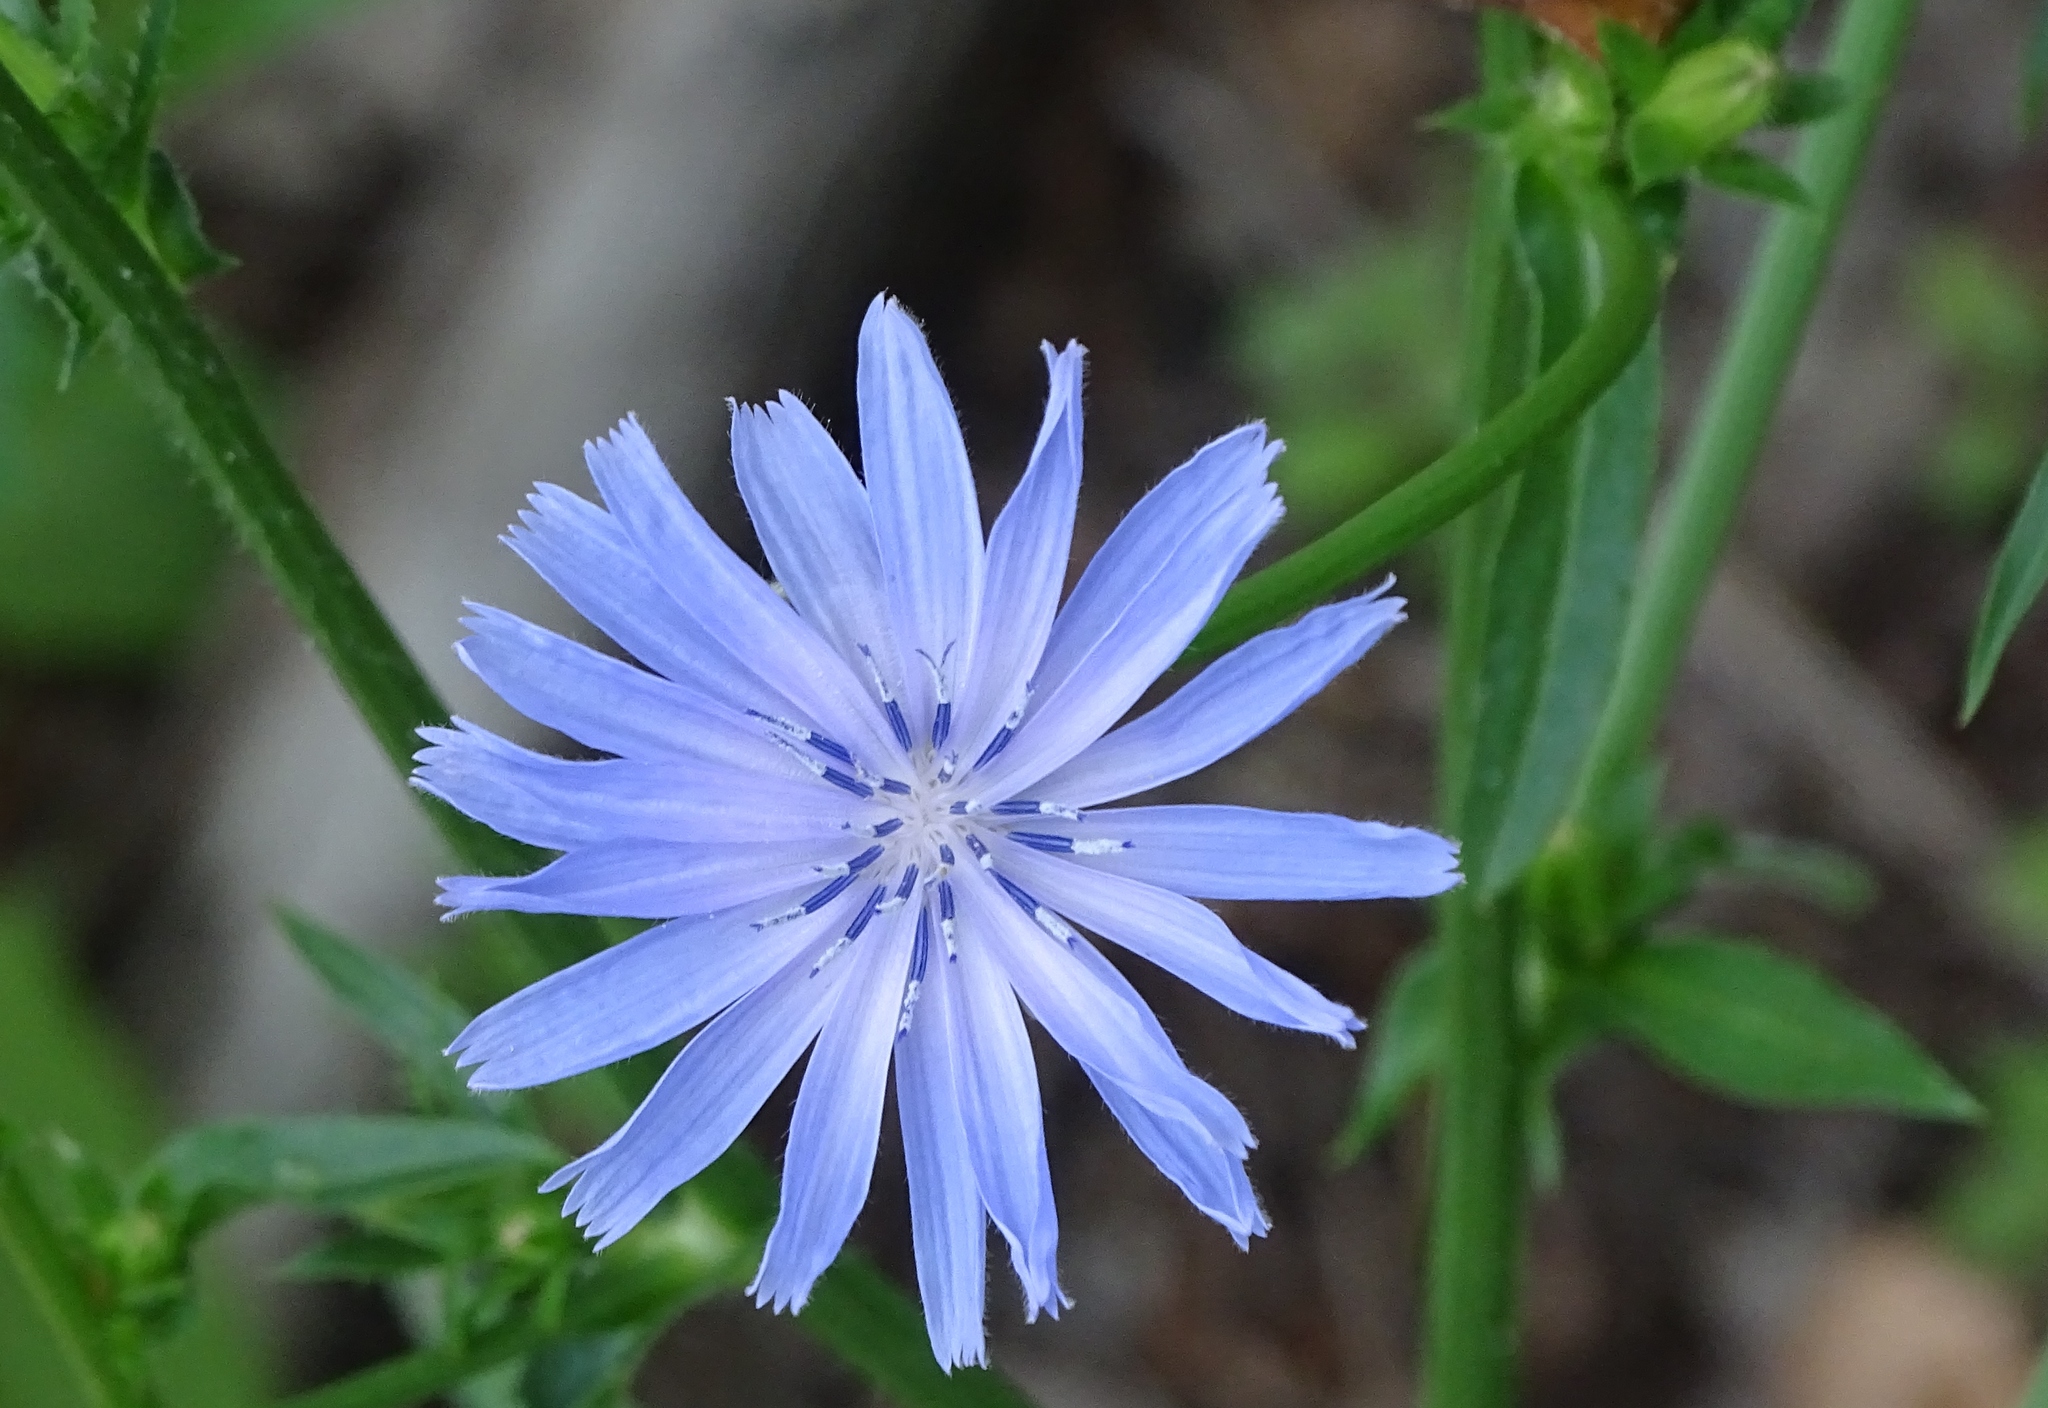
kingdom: Plantae
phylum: Tracheophyta
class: Magnoliopsida
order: Asterales
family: Asteraceae
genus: Cichorium
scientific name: Cichorium intybus
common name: Chicory
